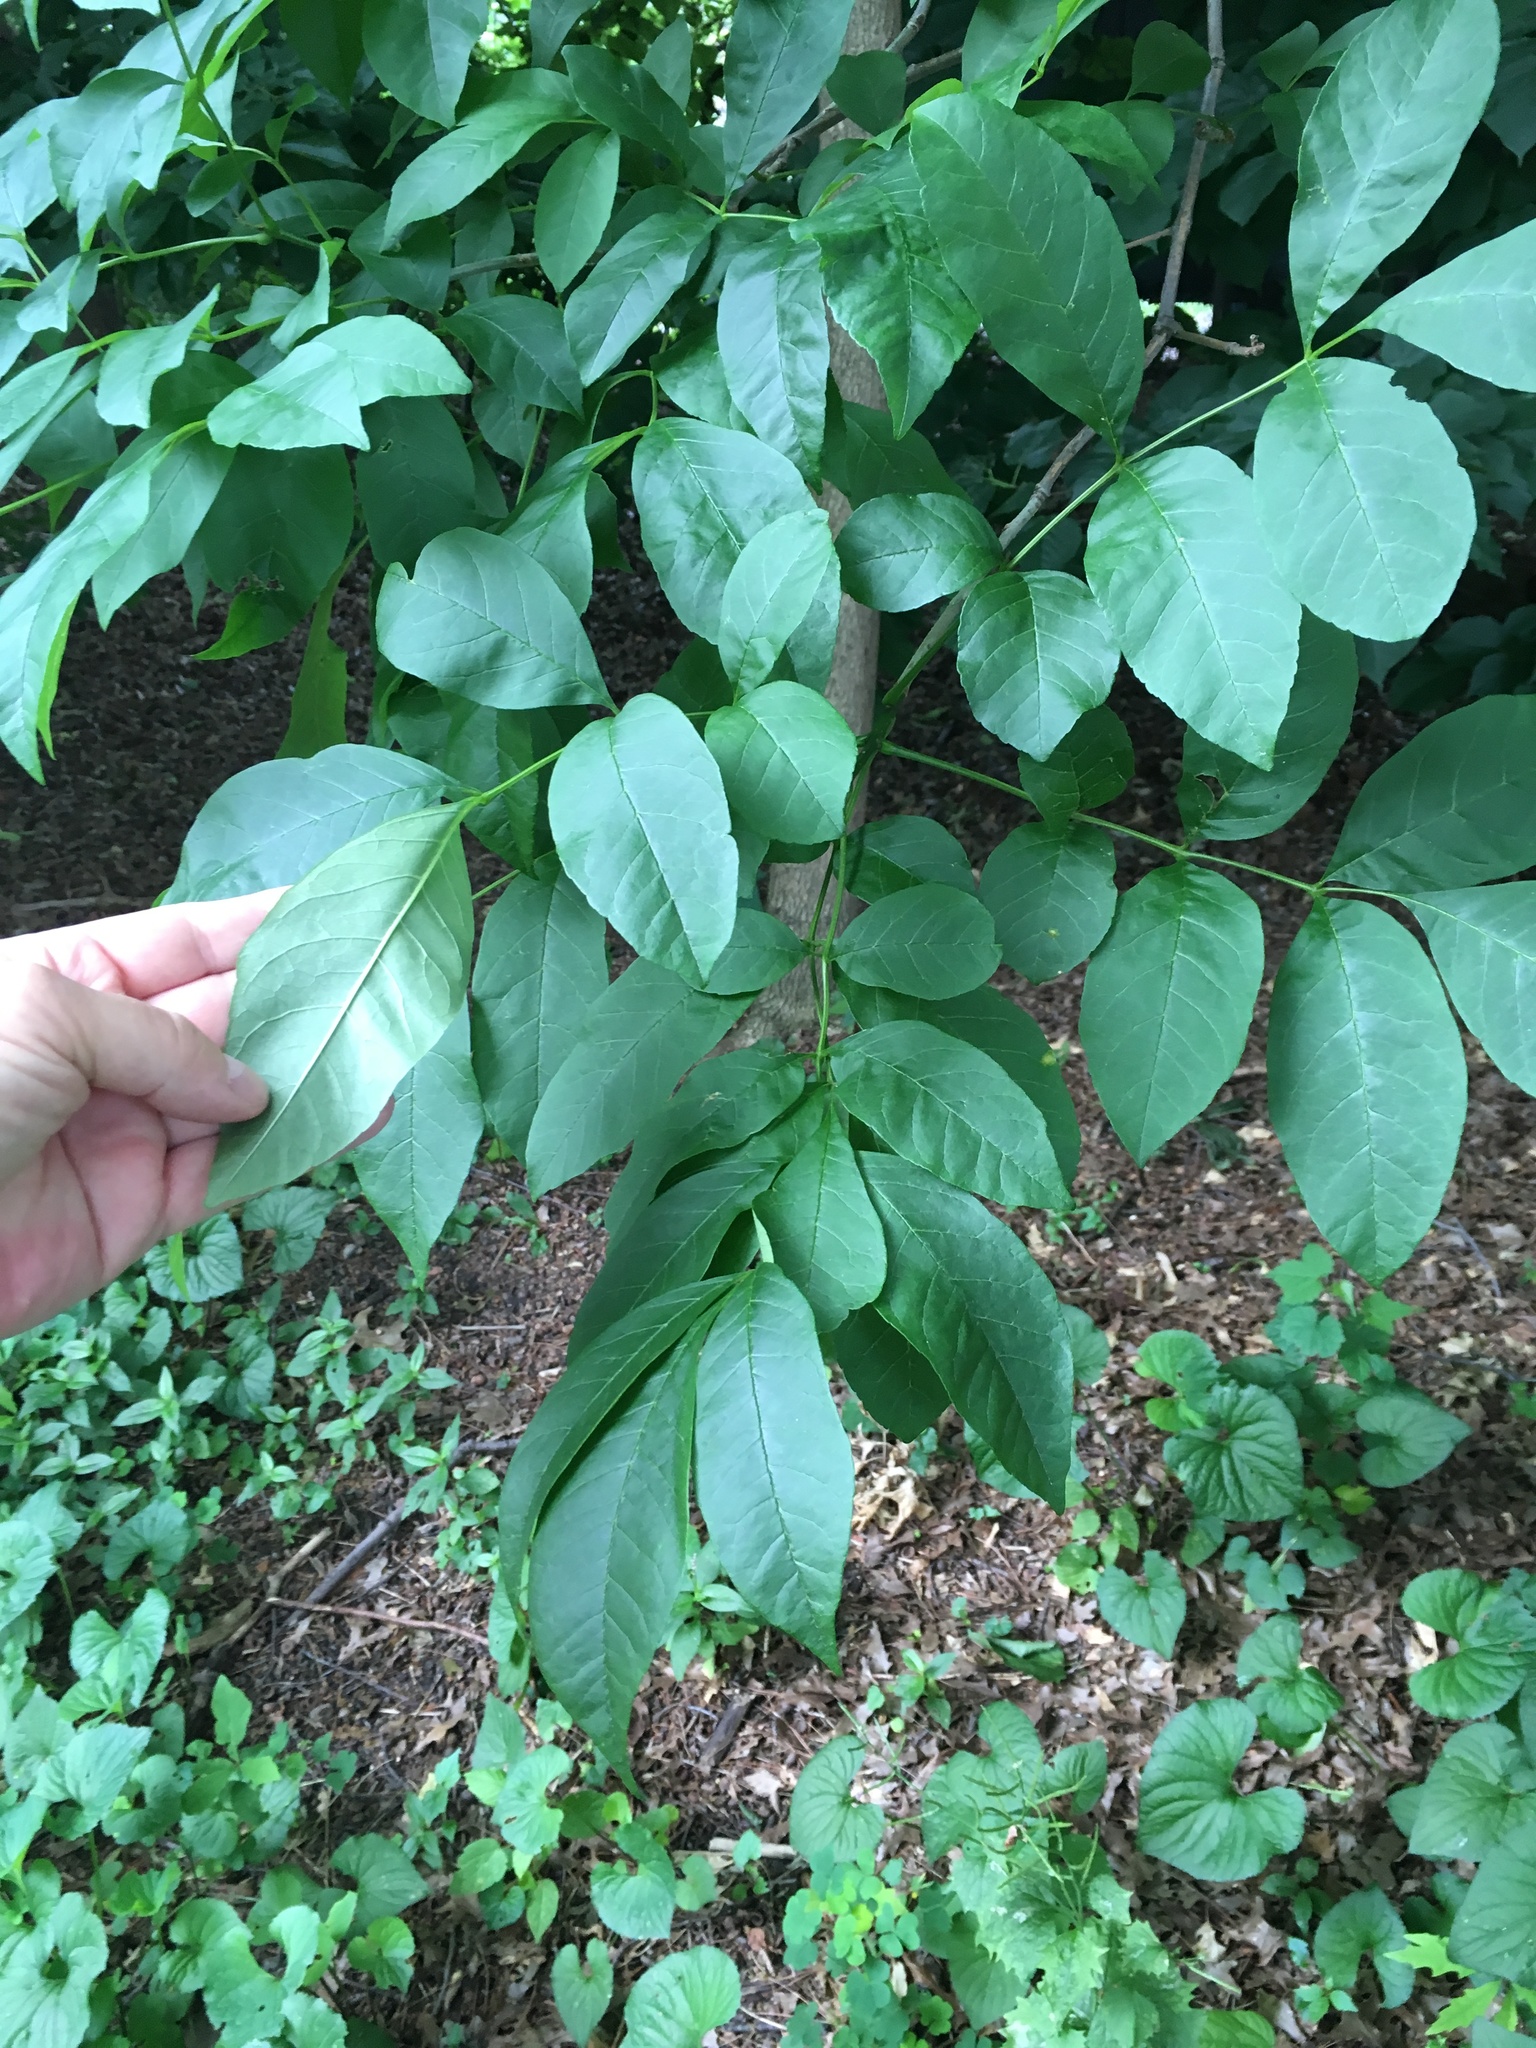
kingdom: Plantae
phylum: Tracheophyta
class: Magnoliopsida
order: Lamiales
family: Oleaceae
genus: Fraxinus
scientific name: Fraxinus pennsylvanica
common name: Green ash
